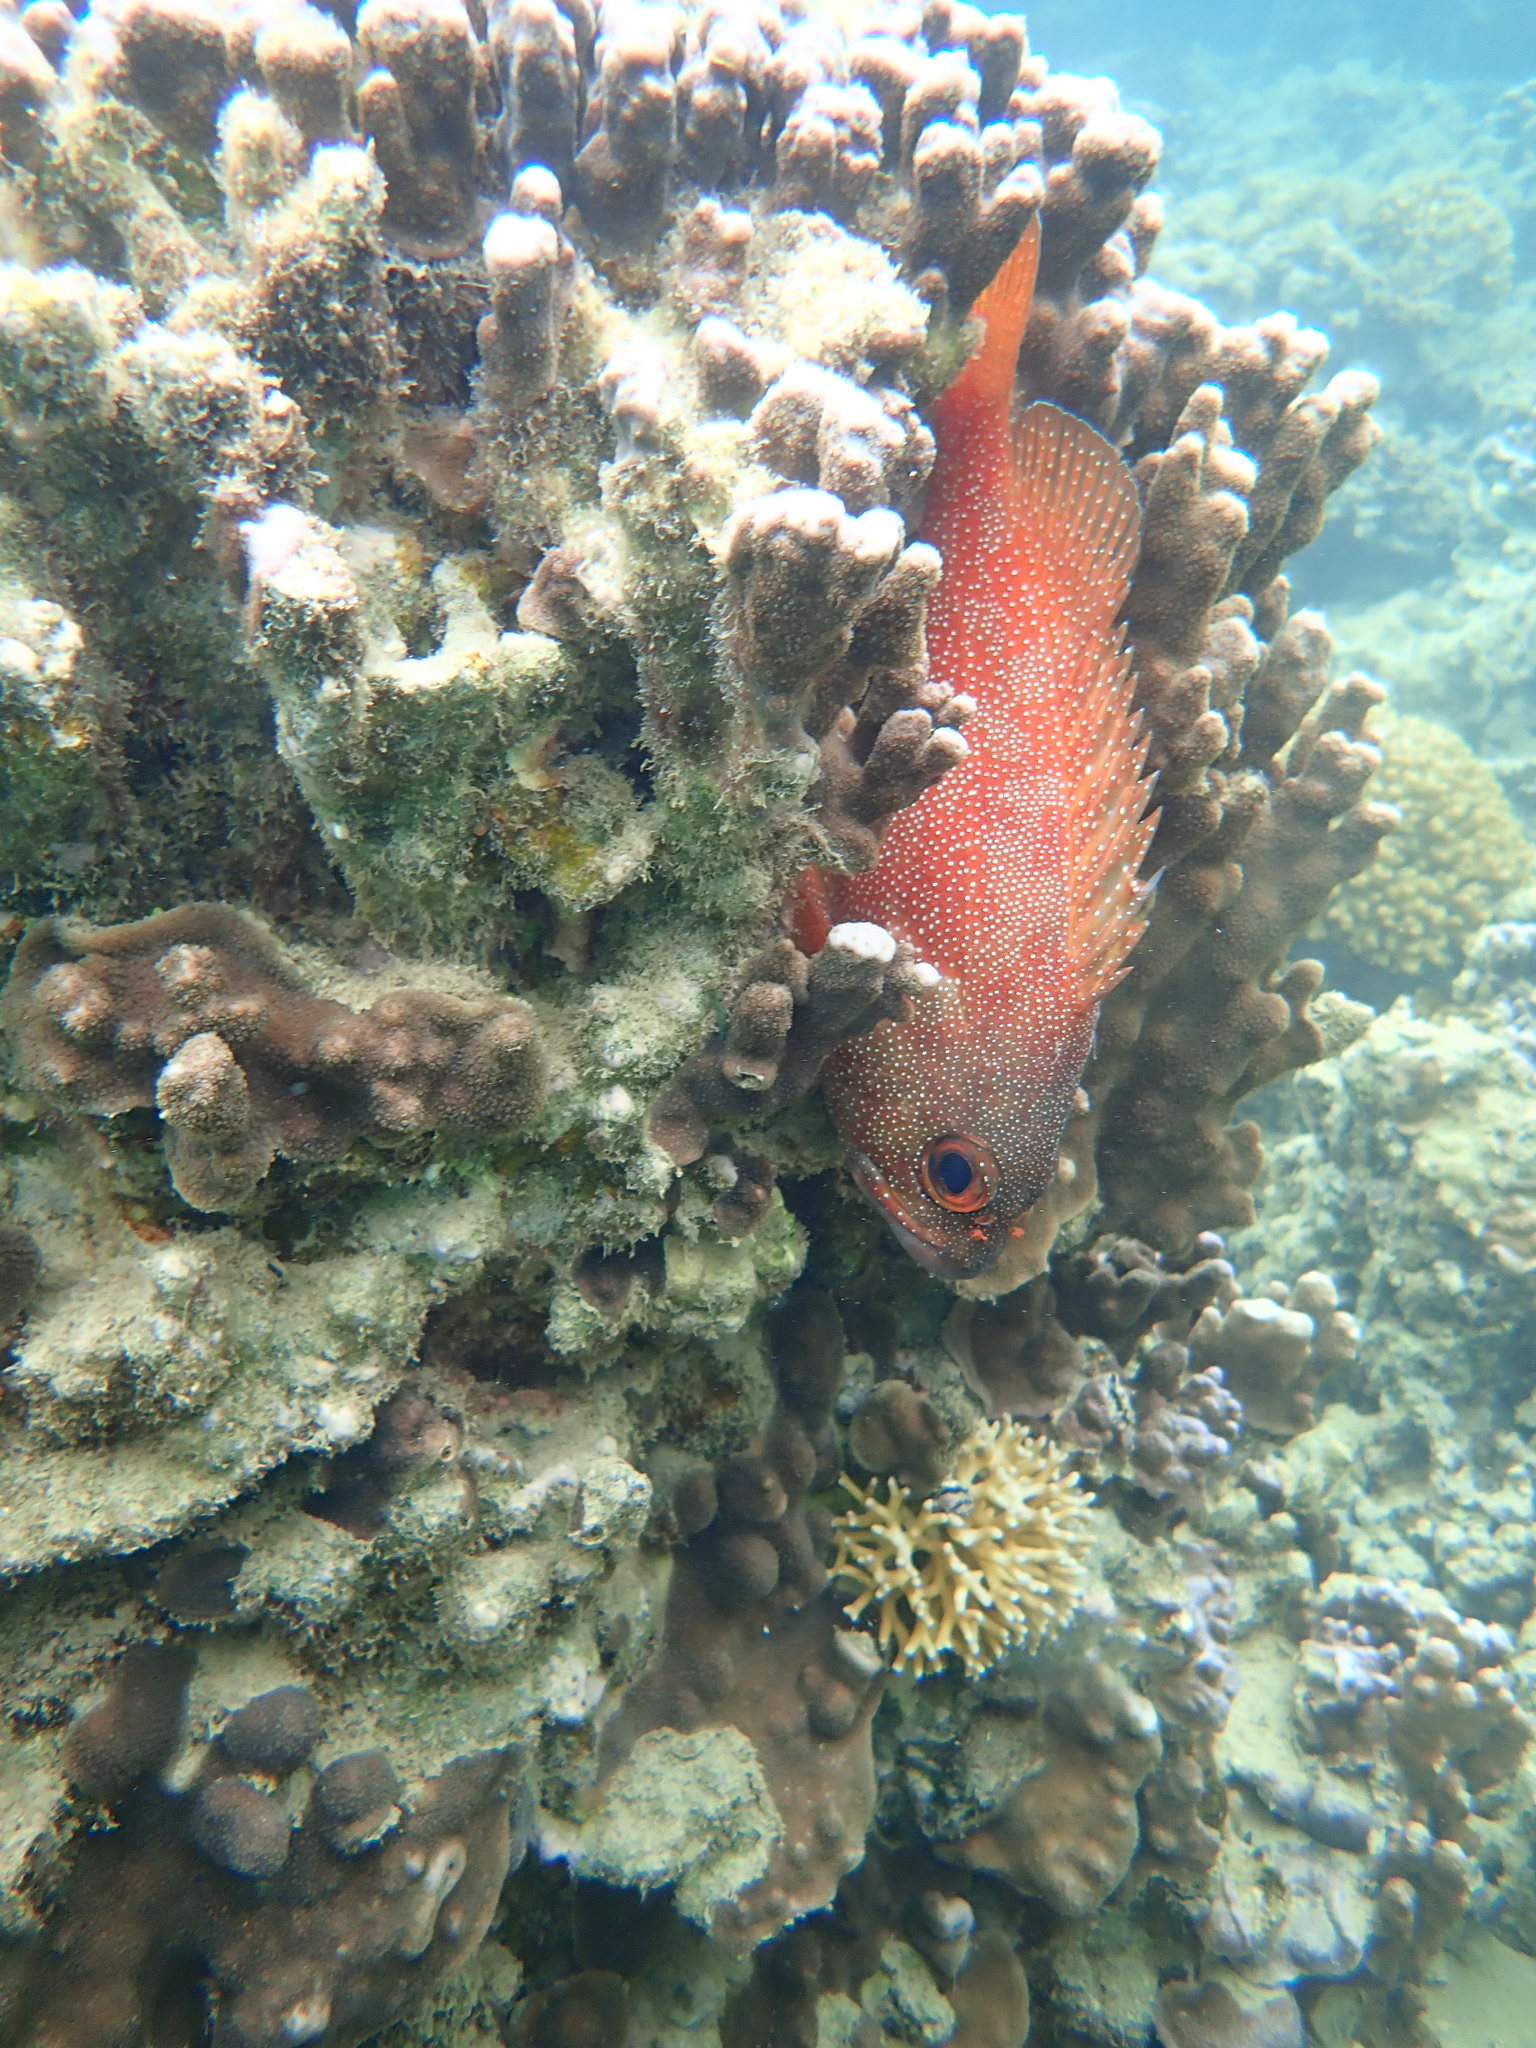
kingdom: Animalia
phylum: Chordata
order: Perciformes
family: Serranidae
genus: Trachypoma
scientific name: Trachypoma macracanthus
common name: Toadstool grouper
